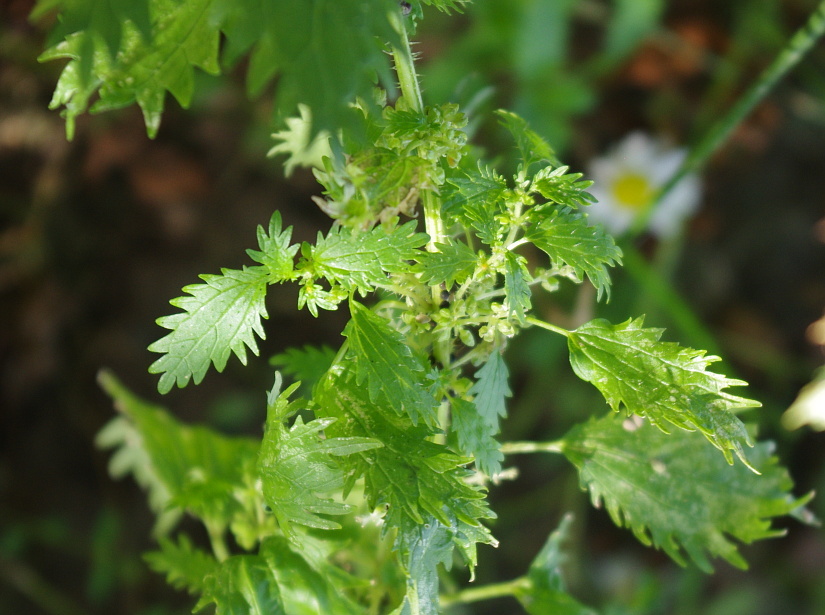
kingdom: Plantae
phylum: Tracheophyta
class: Magnoliopsida
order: Rosales
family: Urticaceae
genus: Urtica
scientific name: Urtica urens
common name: Dwarf nettle
